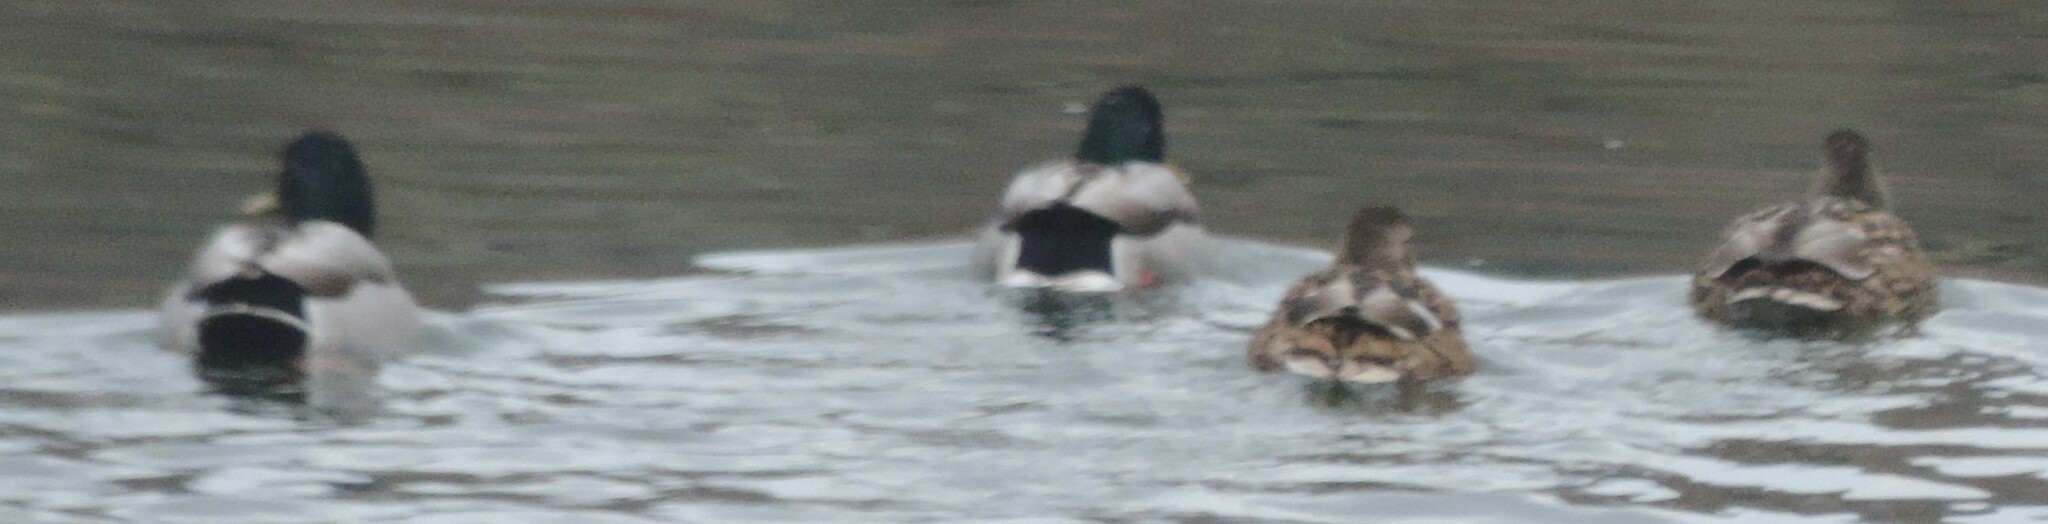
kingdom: Animalia
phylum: Chordata
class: Aves
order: Anseriformes
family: Anatidae
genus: Anas
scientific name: Anas platyrhynchos
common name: Mallard
